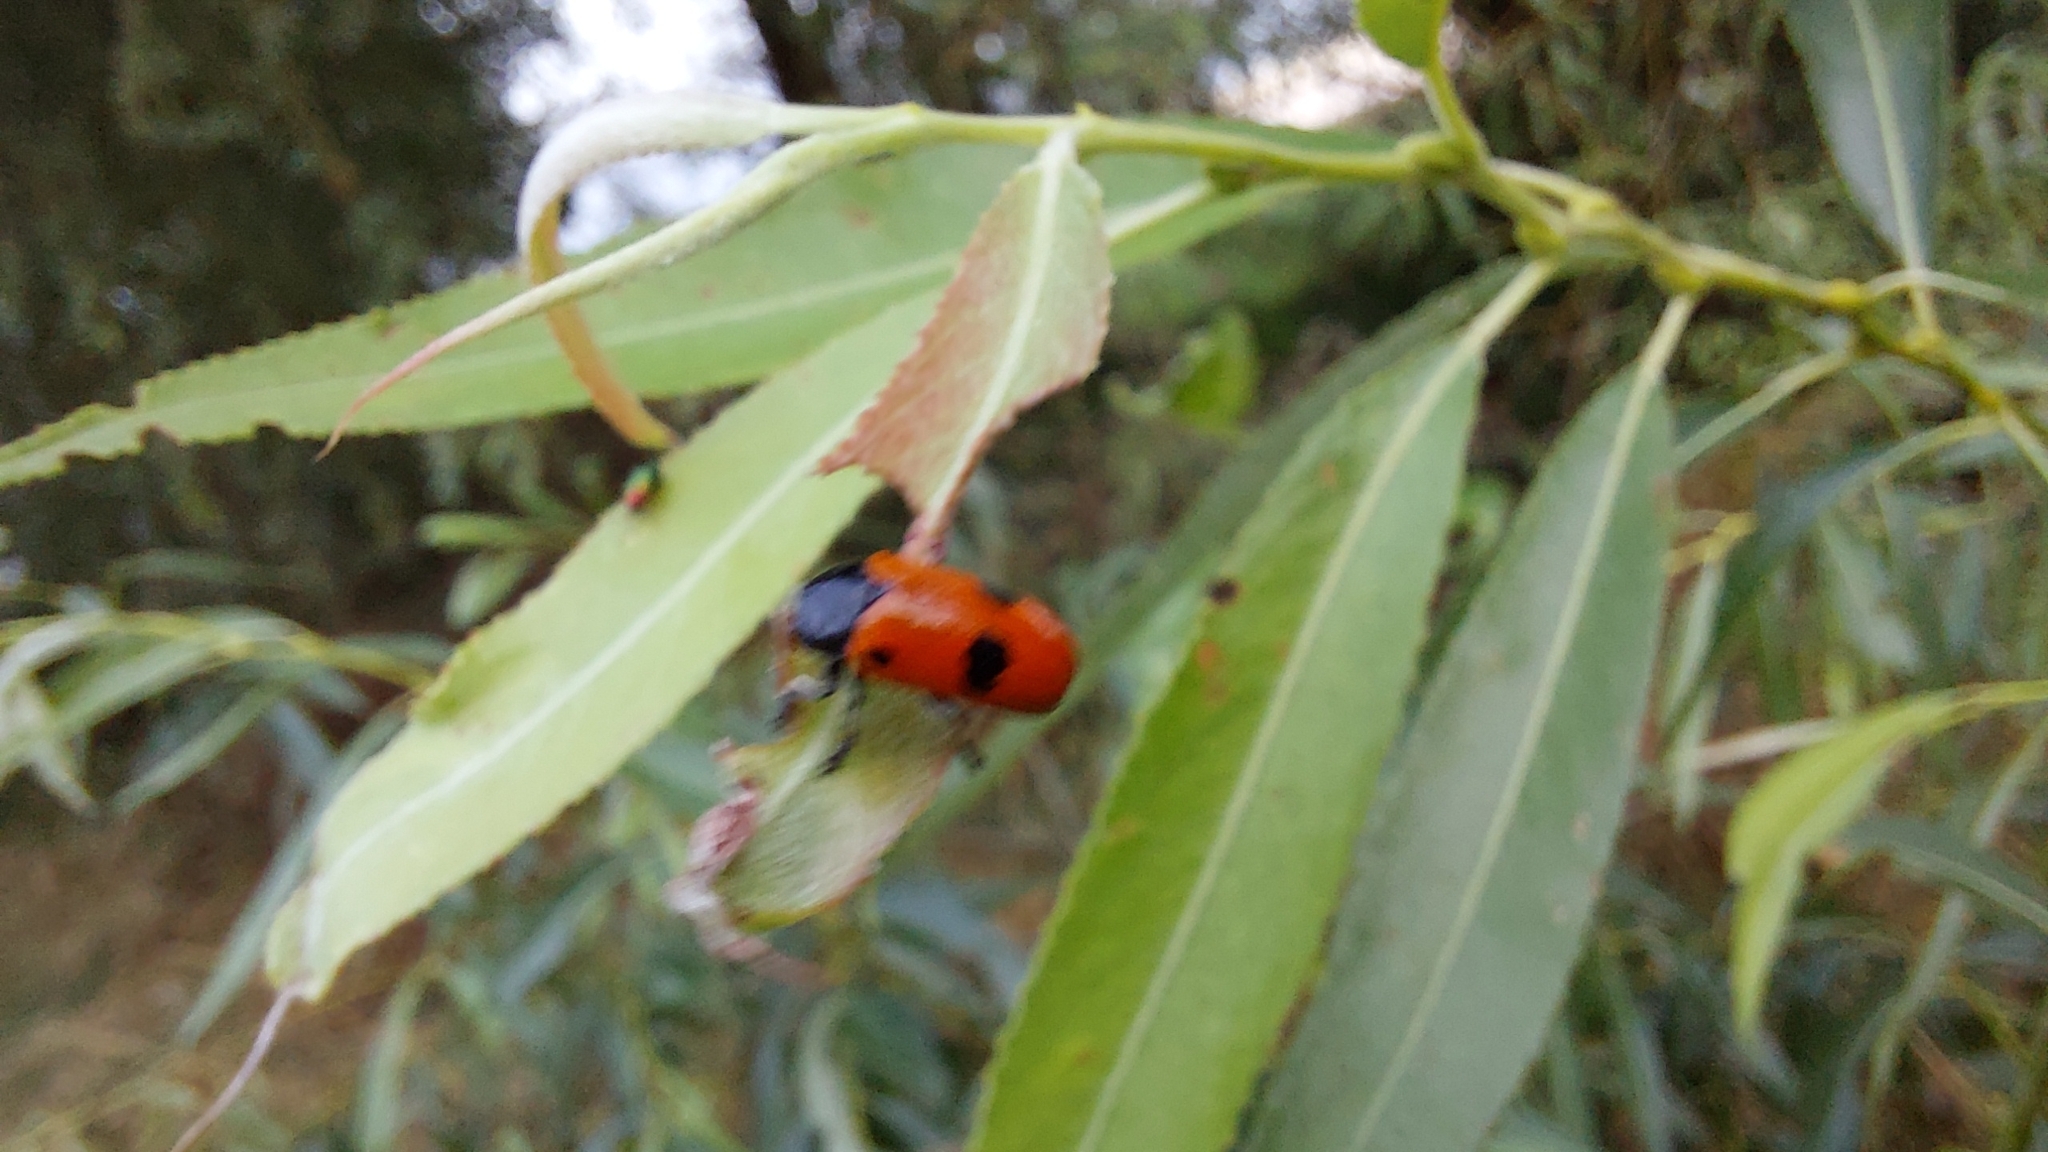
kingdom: Animalia
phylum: Arthropoda
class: Insecta
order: Coleoptera
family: Chrysomelidae
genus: Clytra
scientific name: Clytra laeviuscula
